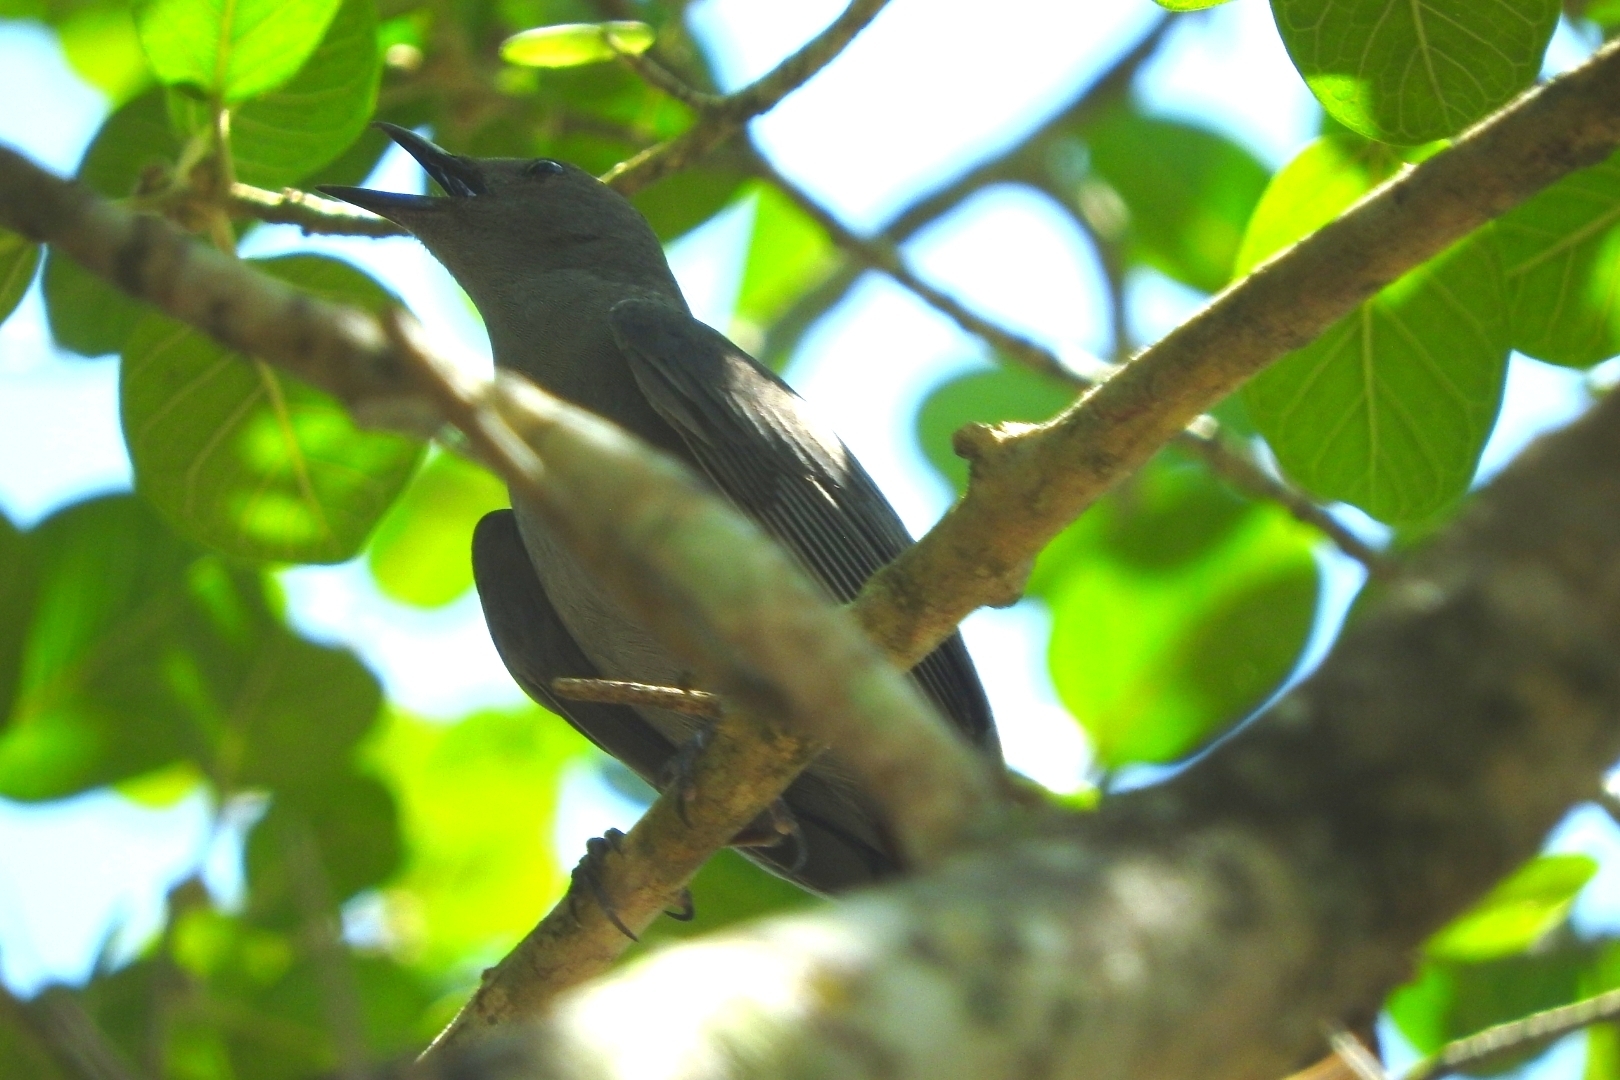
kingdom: Animalia
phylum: Chordata
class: Aves
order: Passeriformes
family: Mimidae
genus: Melanoptila
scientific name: Melanoptila glabrirostris
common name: Black catbird
